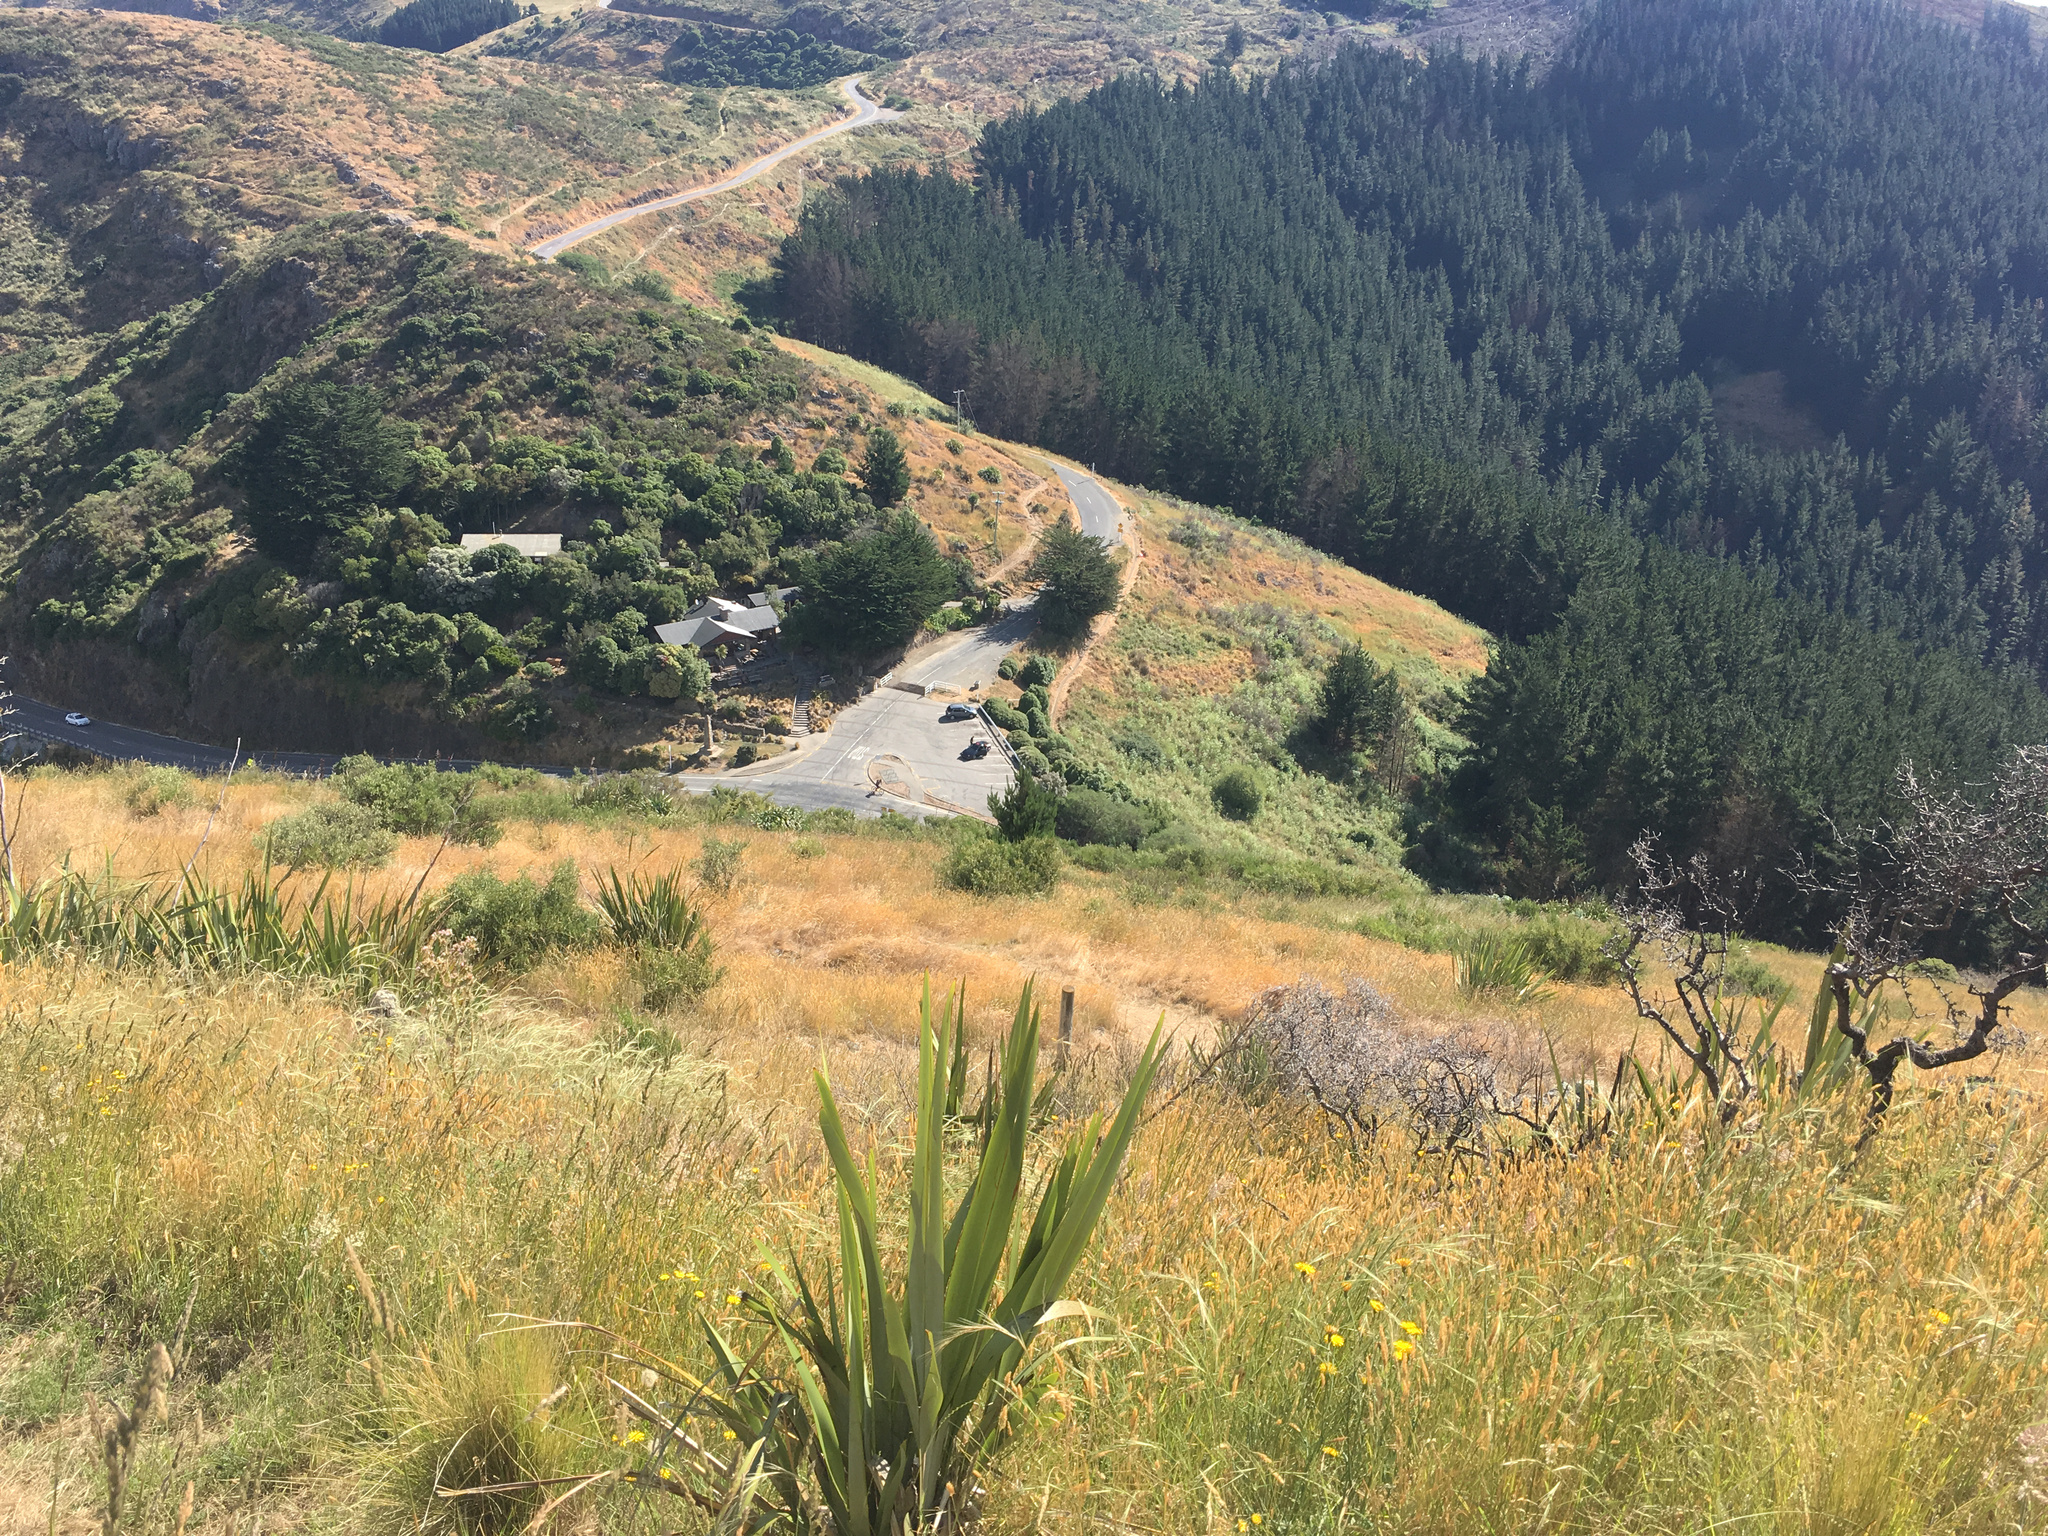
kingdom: Plantae
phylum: Tracheophyta
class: Liliopsida
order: Asparagales
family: Asphodelaceae
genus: Phormium
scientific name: Phormium tenax
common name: New zealand flax
